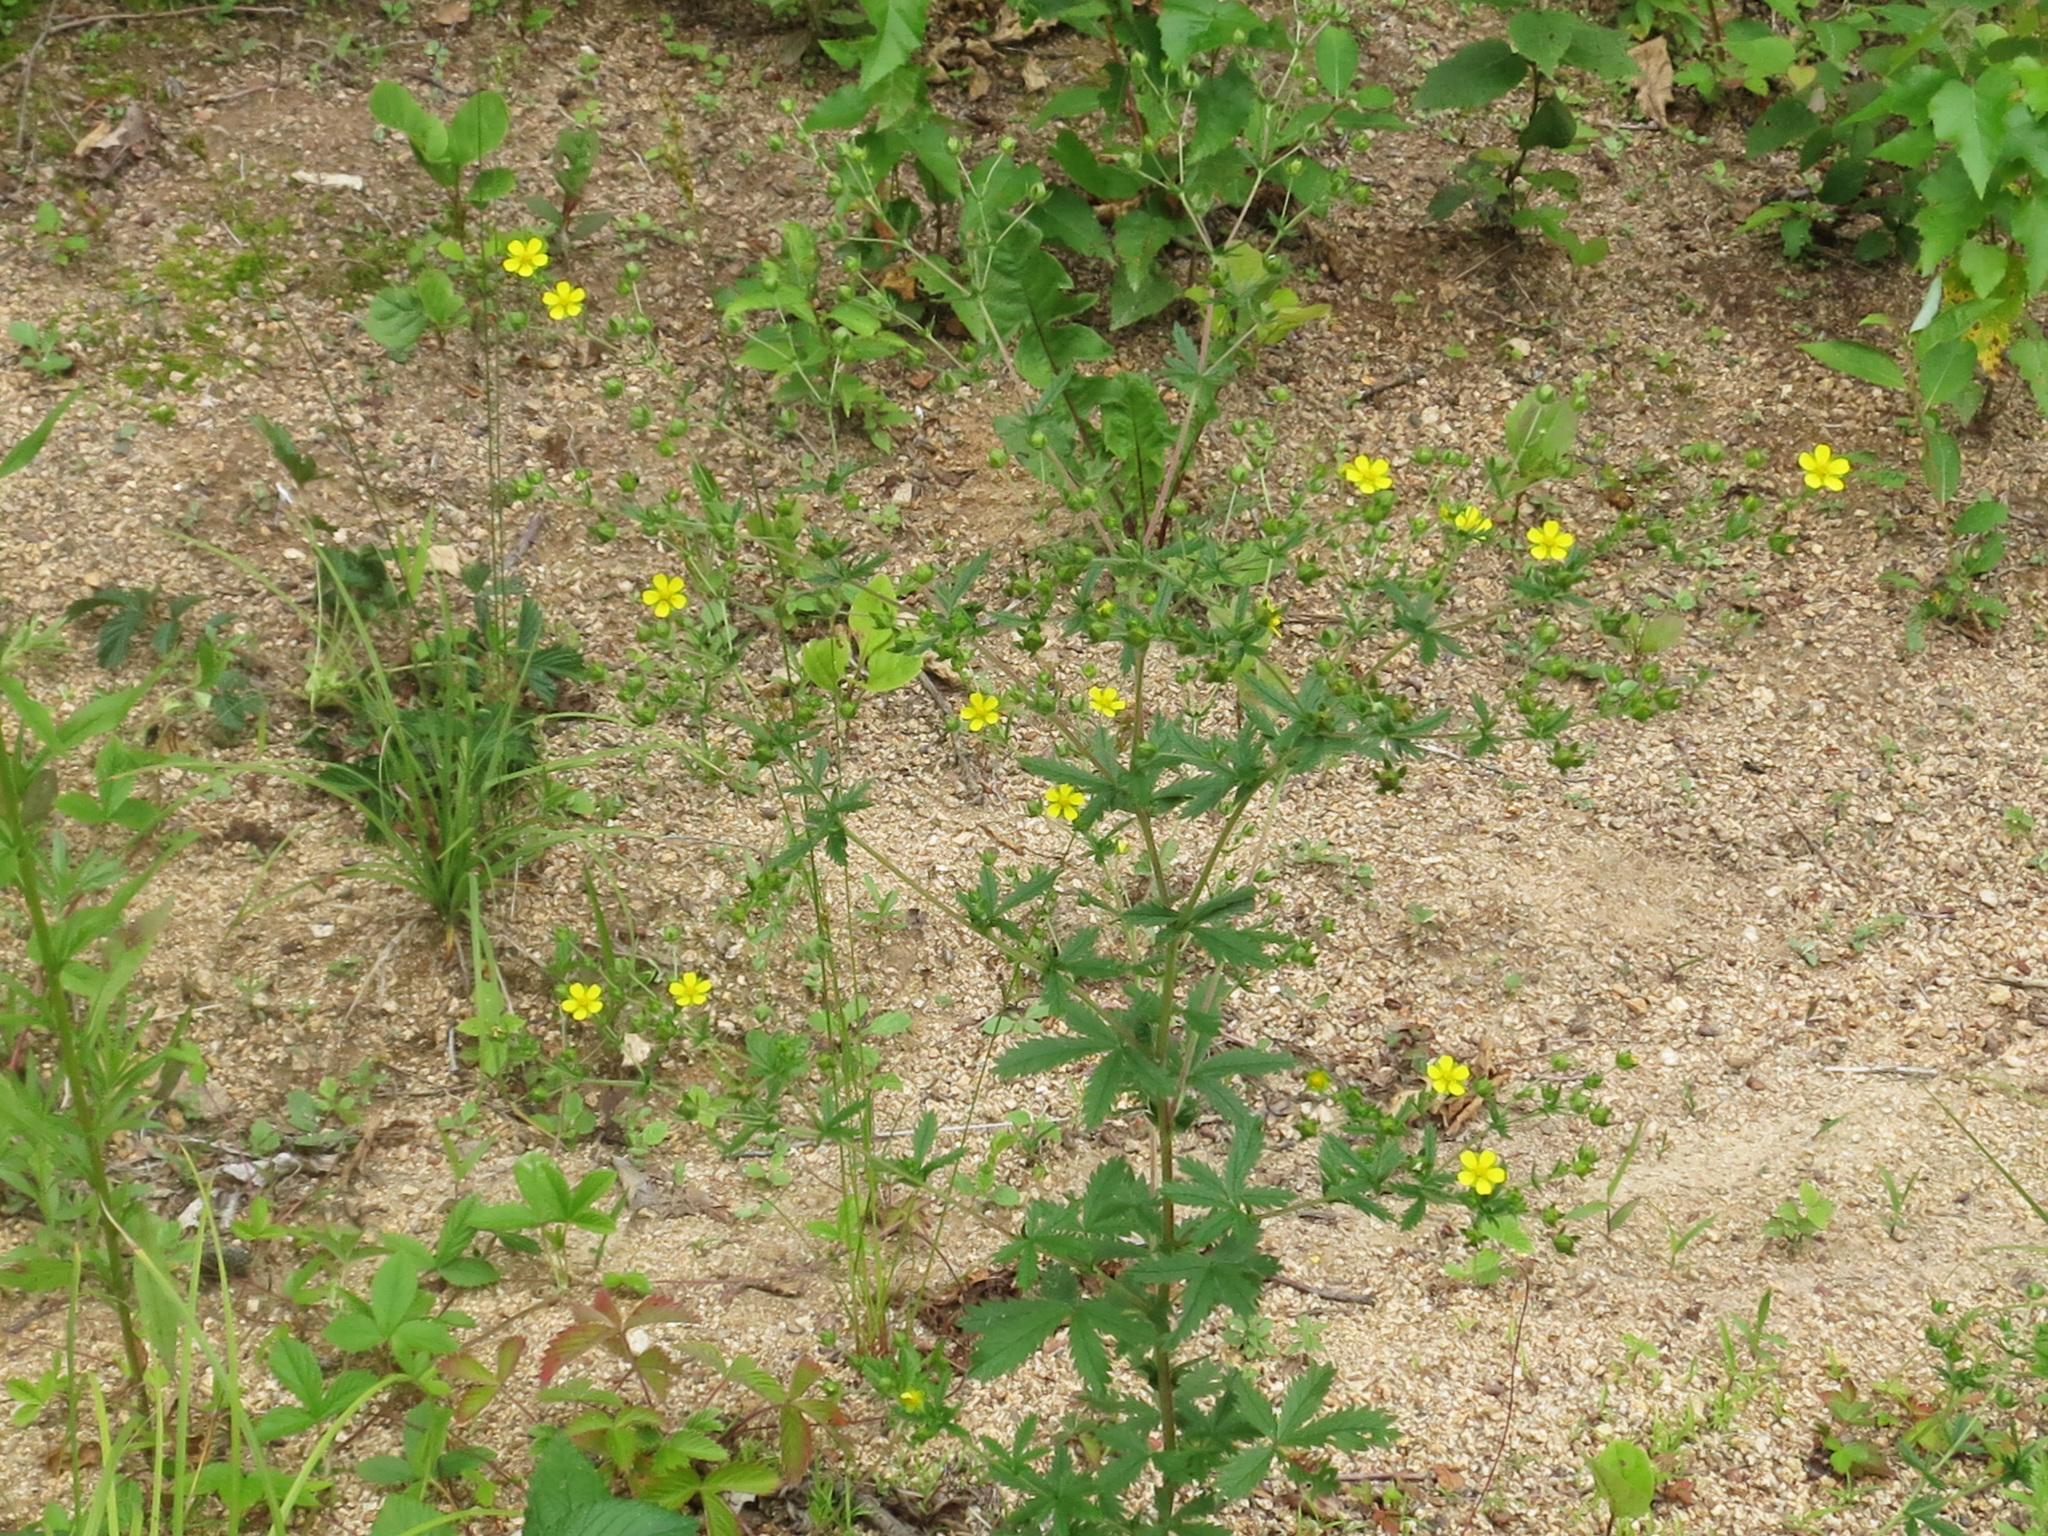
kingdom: Plantae
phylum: Tracheophyta
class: Magnoliopsida
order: Rosales
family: Rosaceae
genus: Potentilla
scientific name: Potentilla intermedia
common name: Downy cinquefoil
